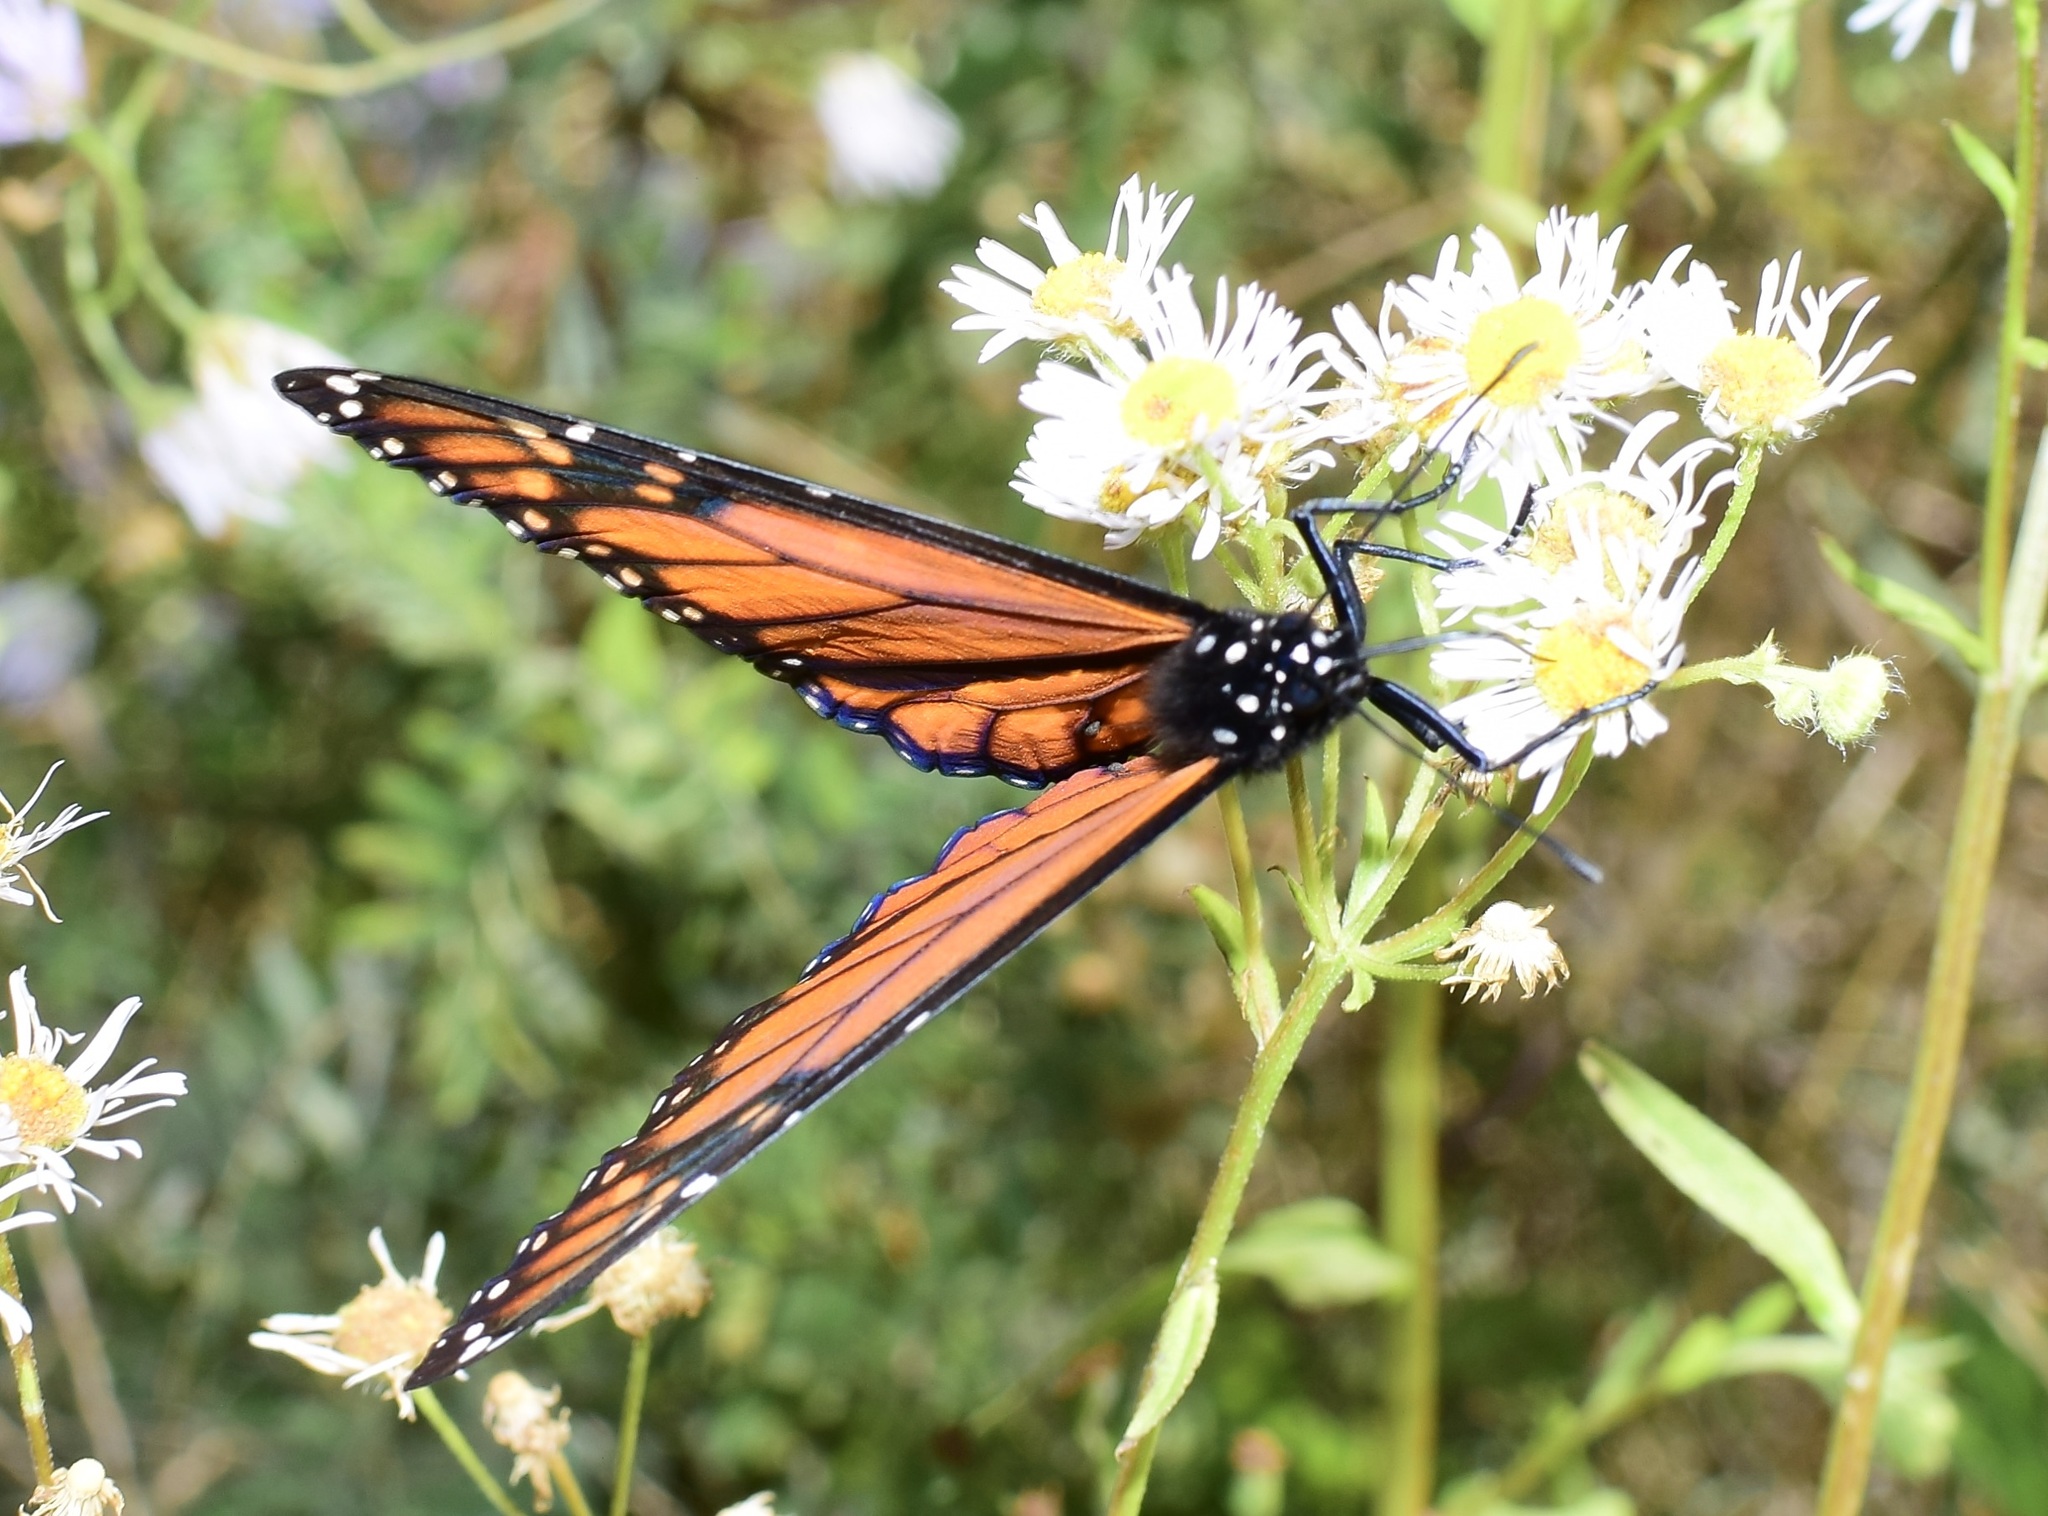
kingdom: Animalia
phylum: Arthropoda
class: Insecta
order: Lepidoptera
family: Nymphalidae
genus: Danaus
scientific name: Danaus plexippus
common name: Monarch
